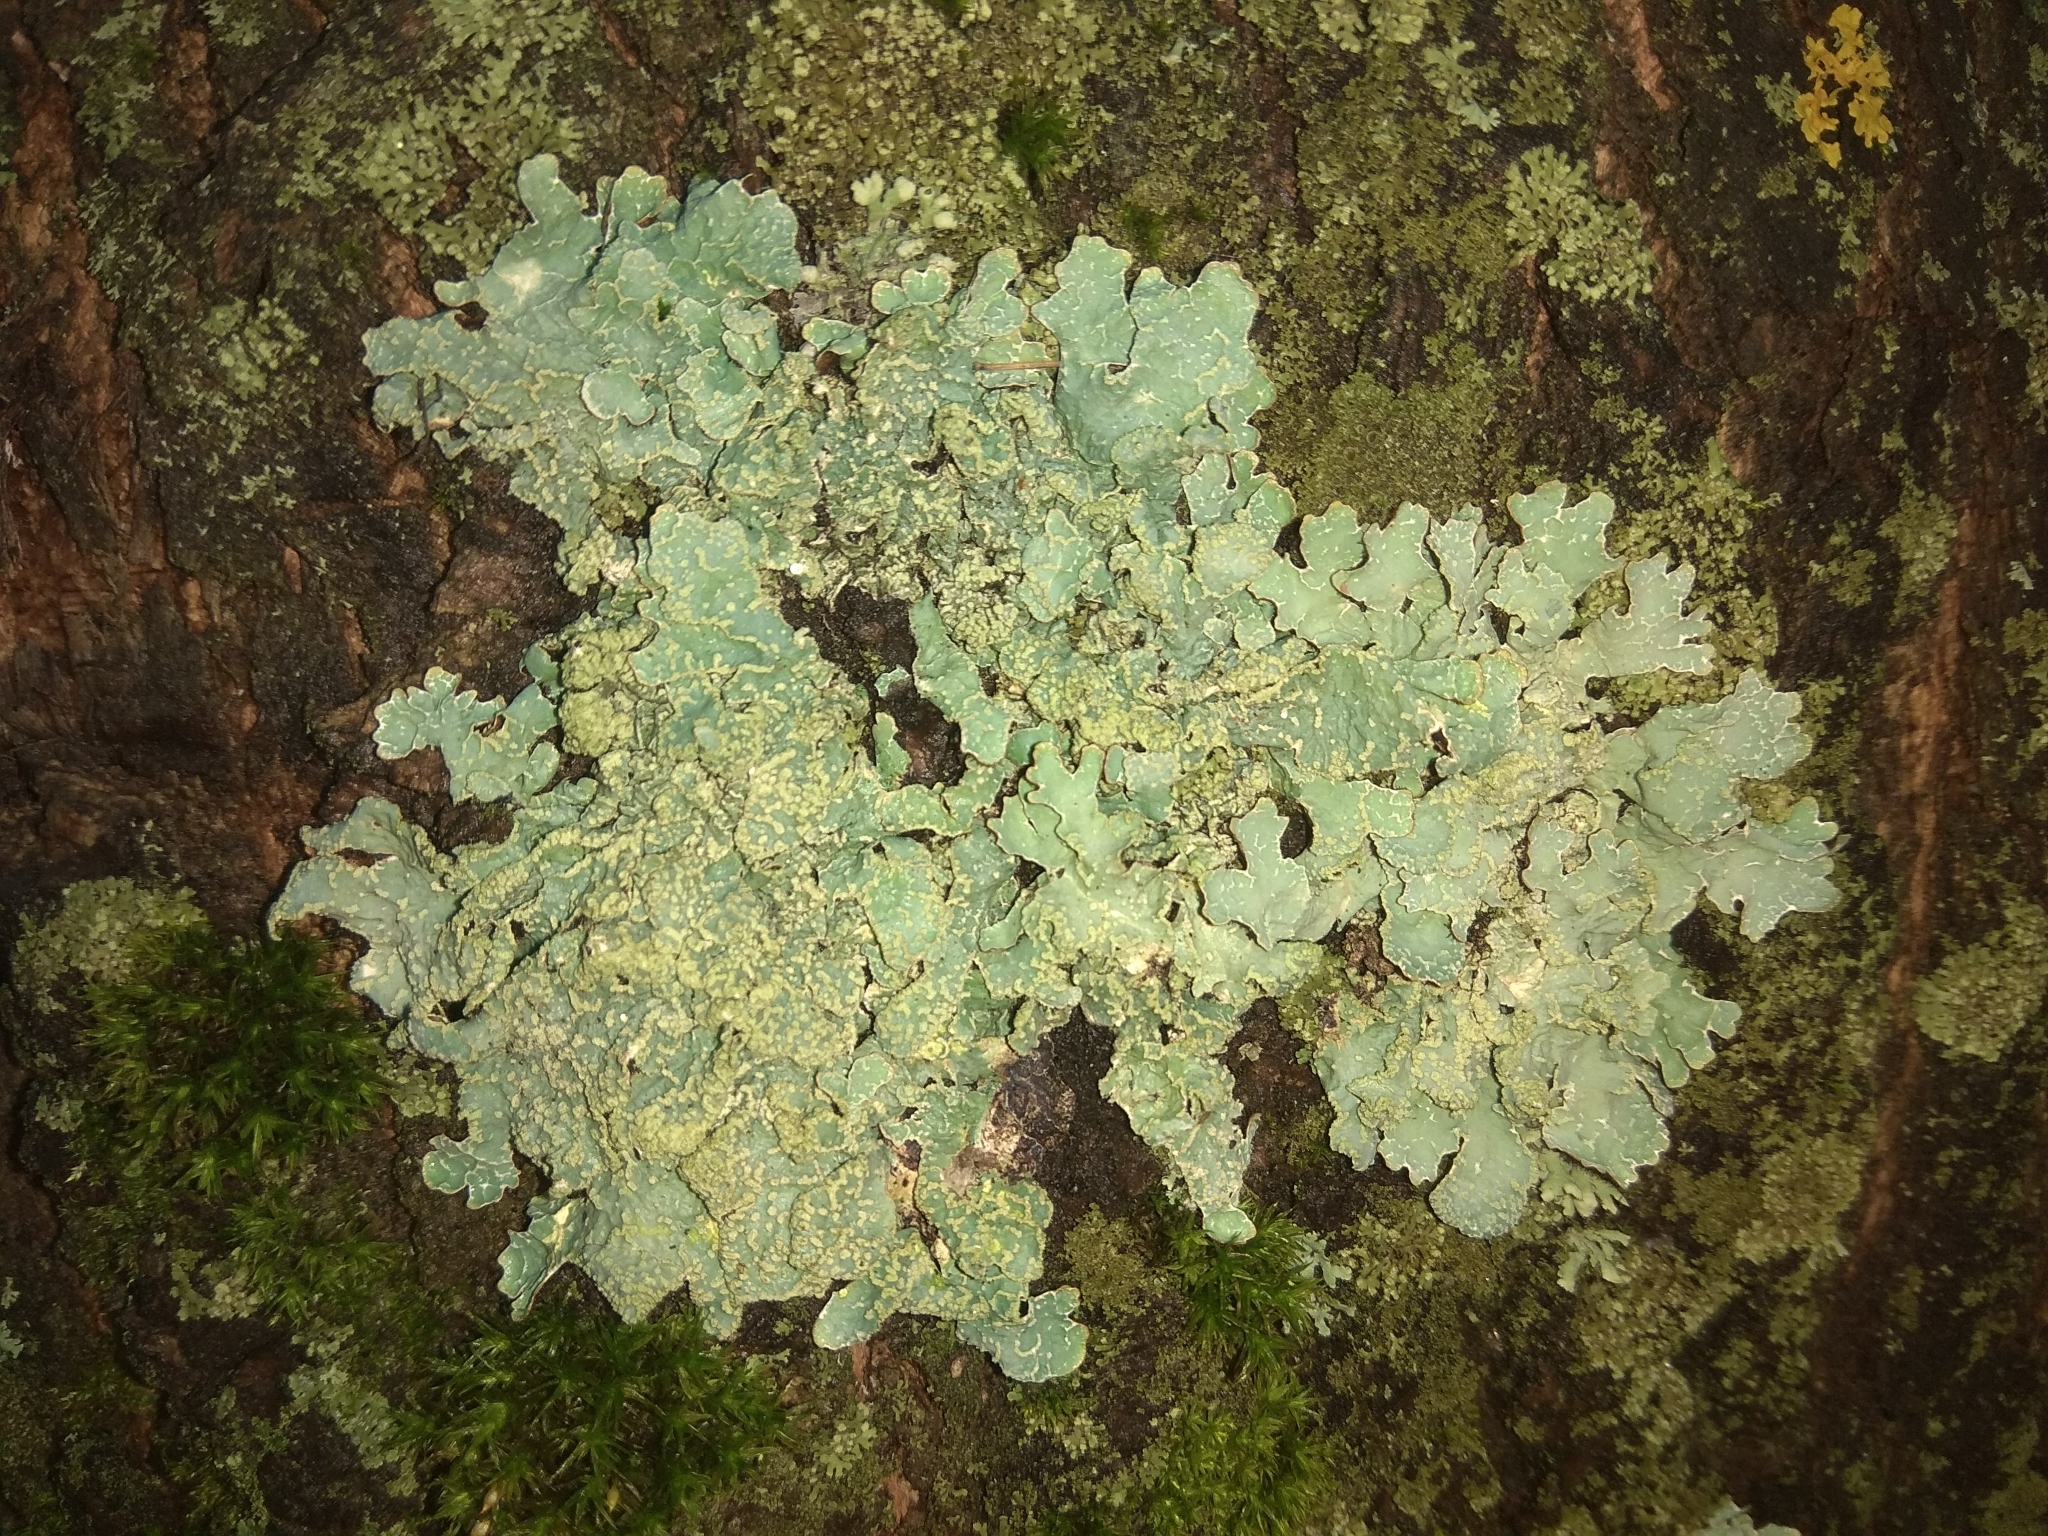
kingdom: Fungi
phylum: Ascomycota
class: Lecanoromycetes
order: Lecanorales
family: Parmeliaceae
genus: Parmelia
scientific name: Parmelia sulcata
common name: Netted shield lichen
